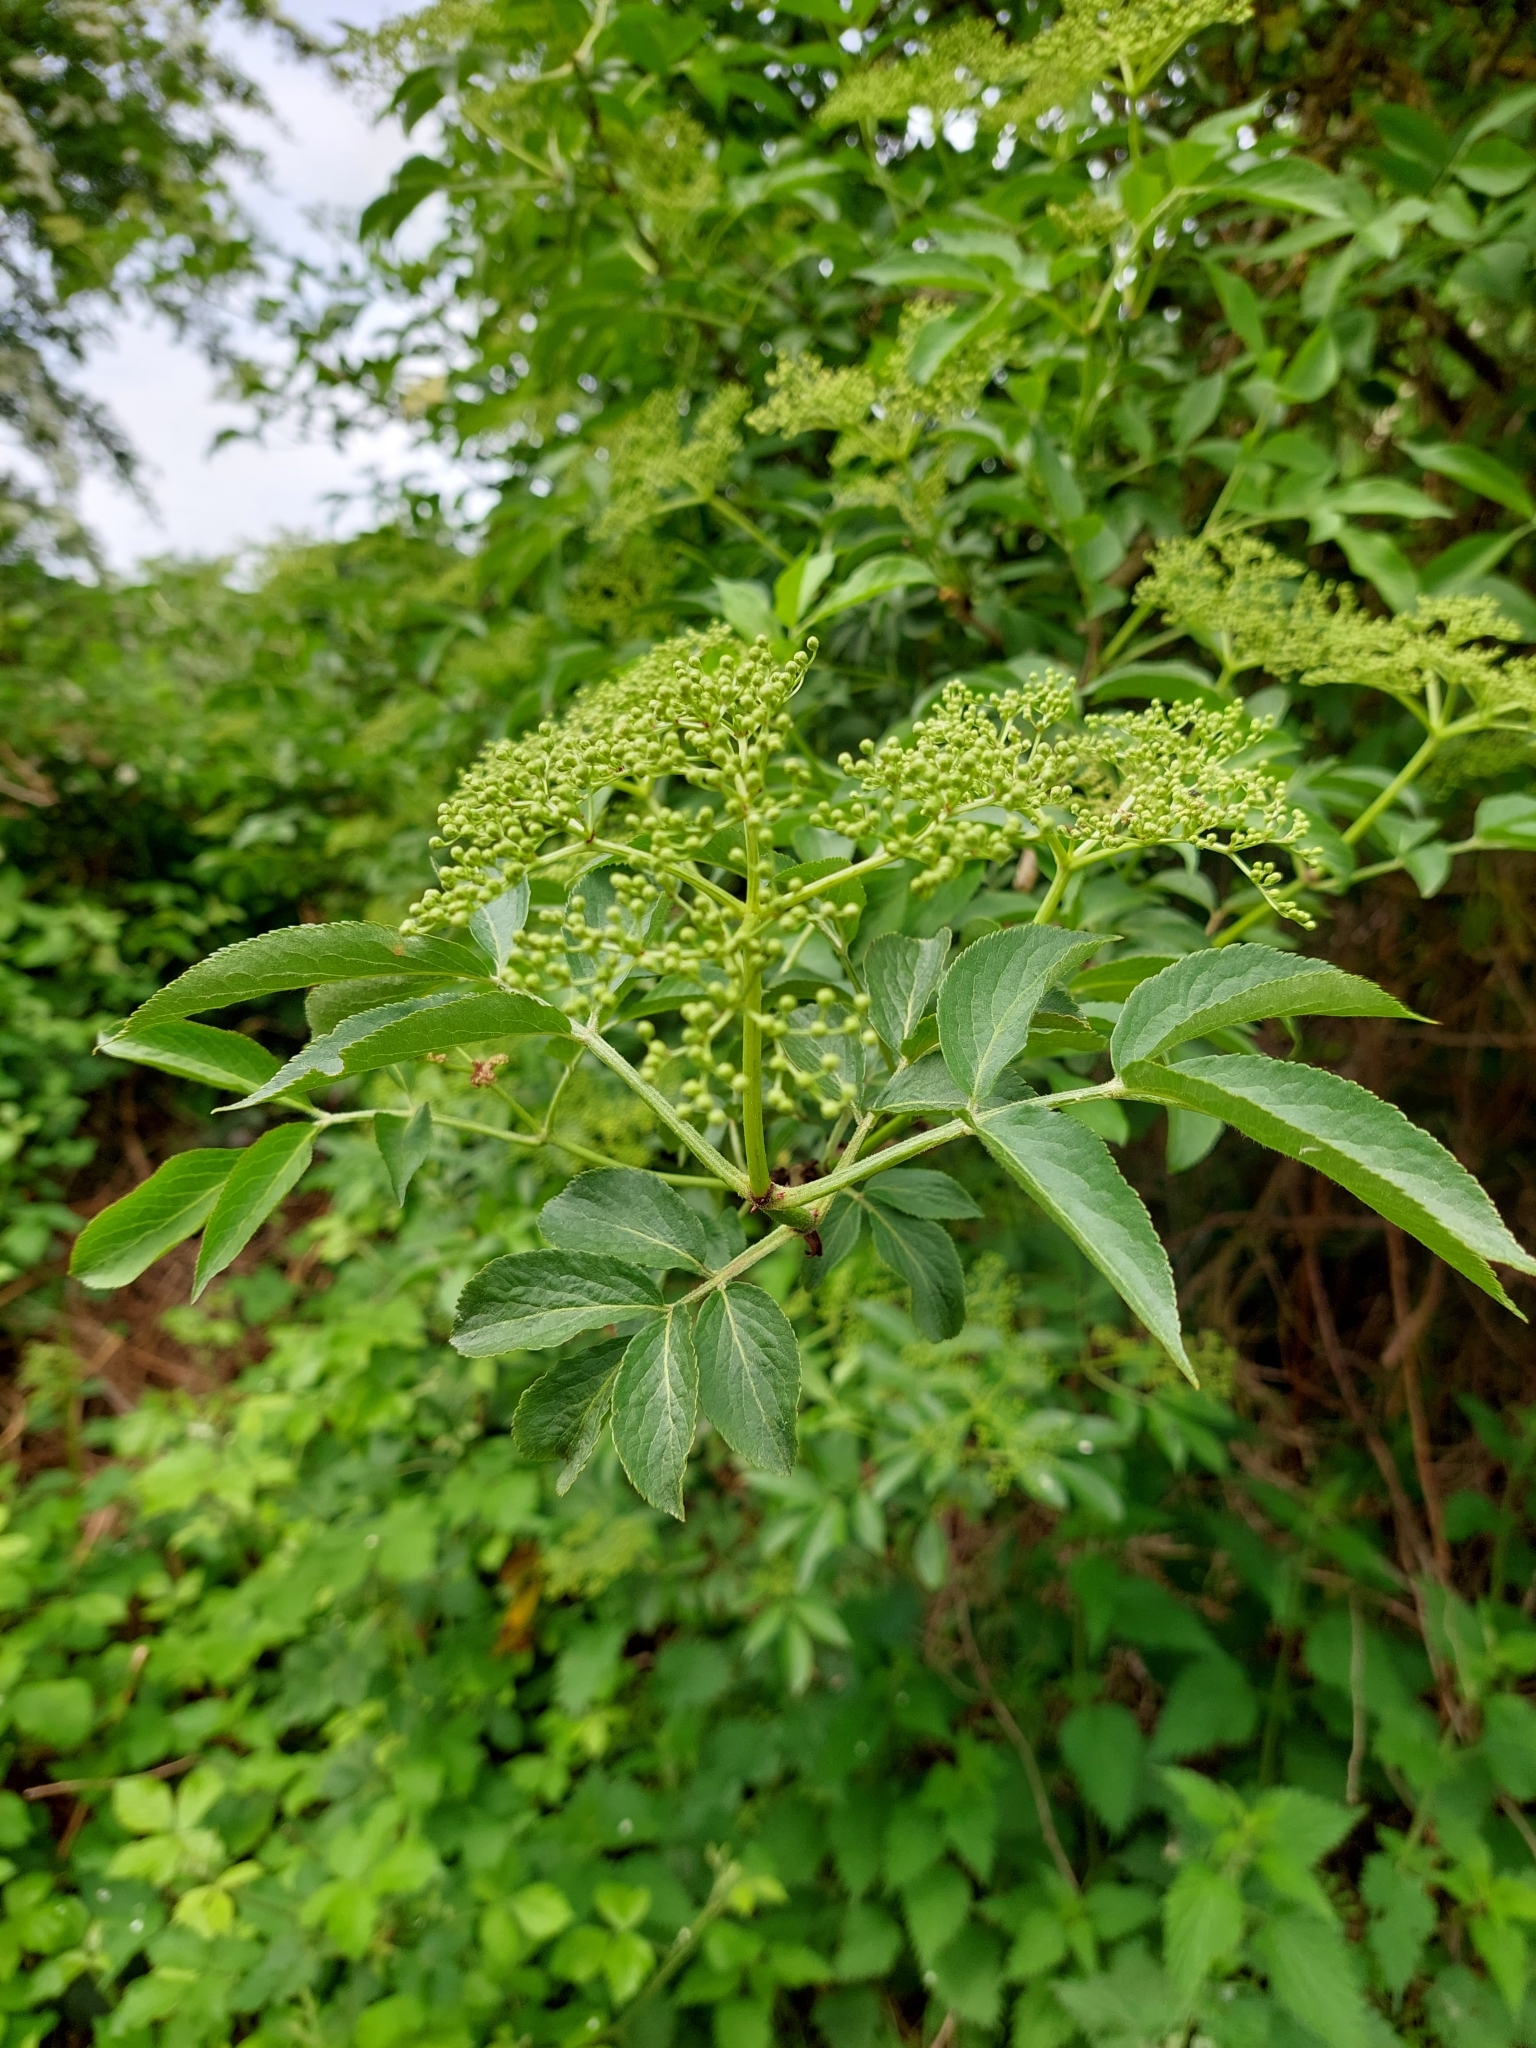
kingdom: Plantae
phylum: Tracheophyta
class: Magnoliopsida
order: Dipsacales
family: Viburnaceae
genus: Sambucus
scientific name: Sambucus nigra
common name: Elder
